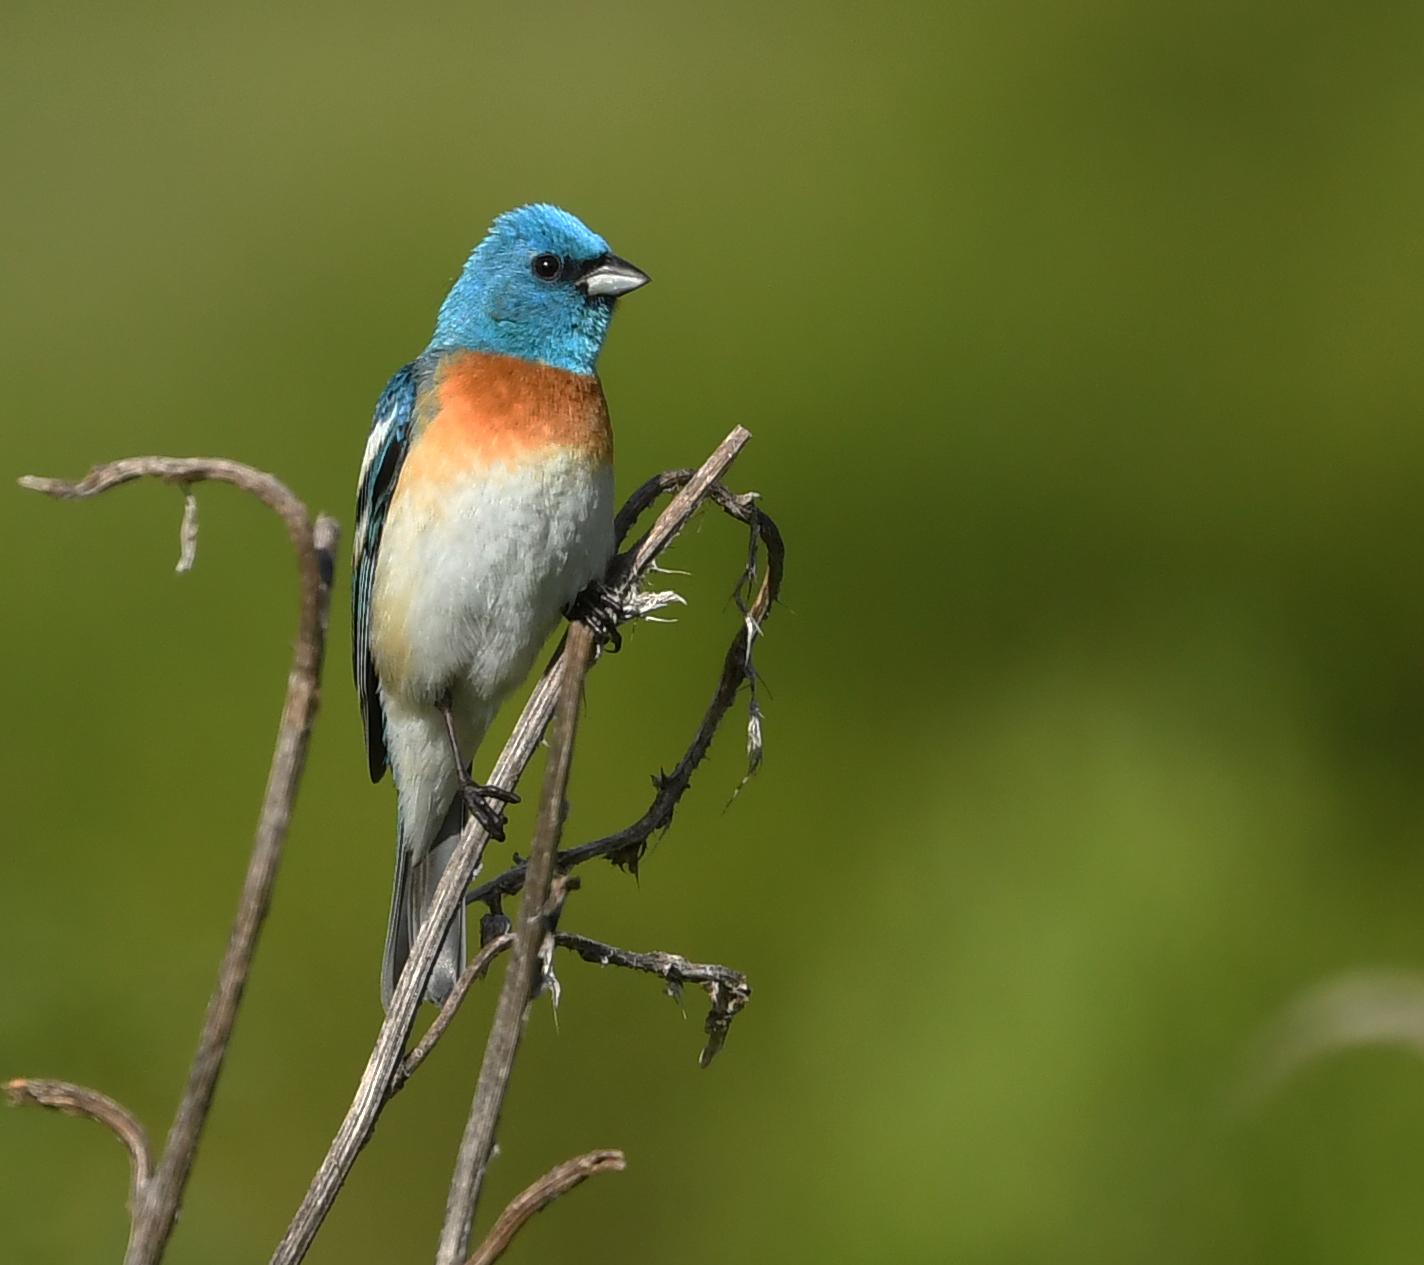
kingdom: Animalia
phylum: Chordata
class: Aves
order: Passeriformes
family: Cardinalidae
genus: Passerina
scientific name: Passerina amoena
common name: Lazuli bunting
